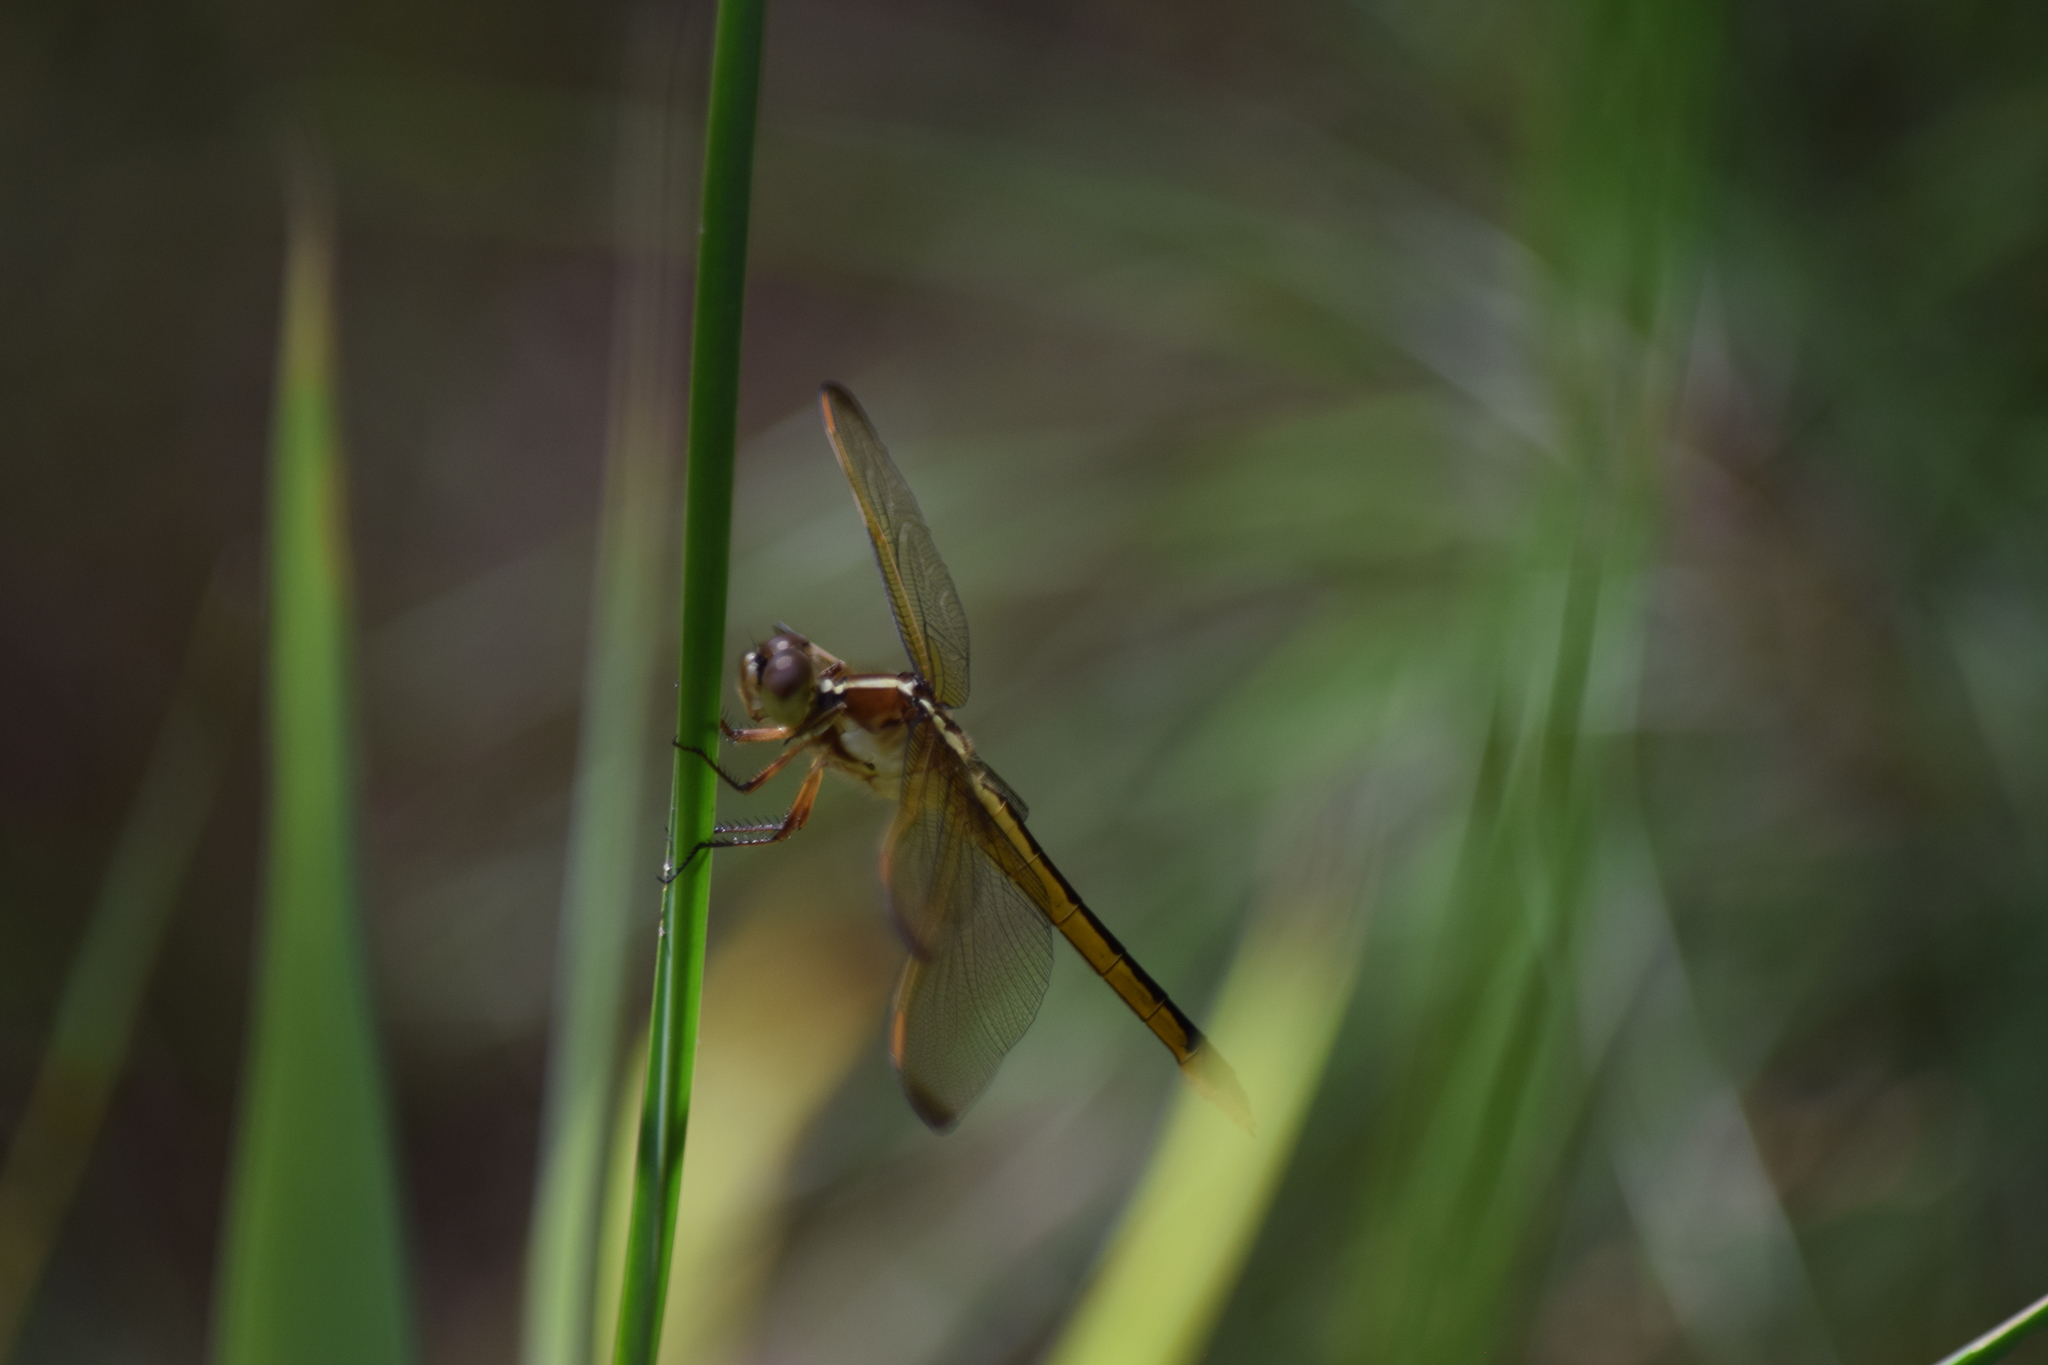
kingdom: Animalia
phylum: Arthropoda
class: Insecta
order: Odonata
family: Libellulidae
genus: Libellula
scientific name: Libellula needhami
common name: Needham's skimmer
